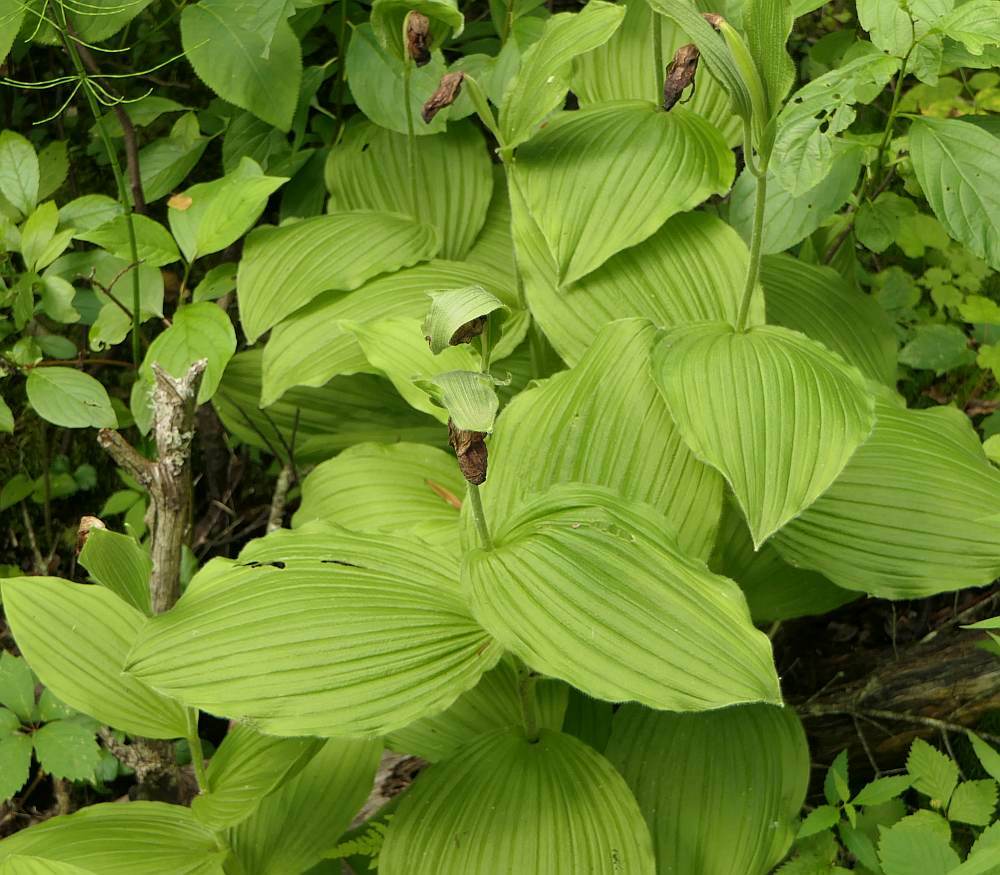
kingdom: Plantae
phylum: Tracheophyta
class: Liliopsida
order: Asparagales
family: Orchidaceae
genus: Cypripedium
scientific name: Cypripedium reginae
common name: Queen lady's-slipper
